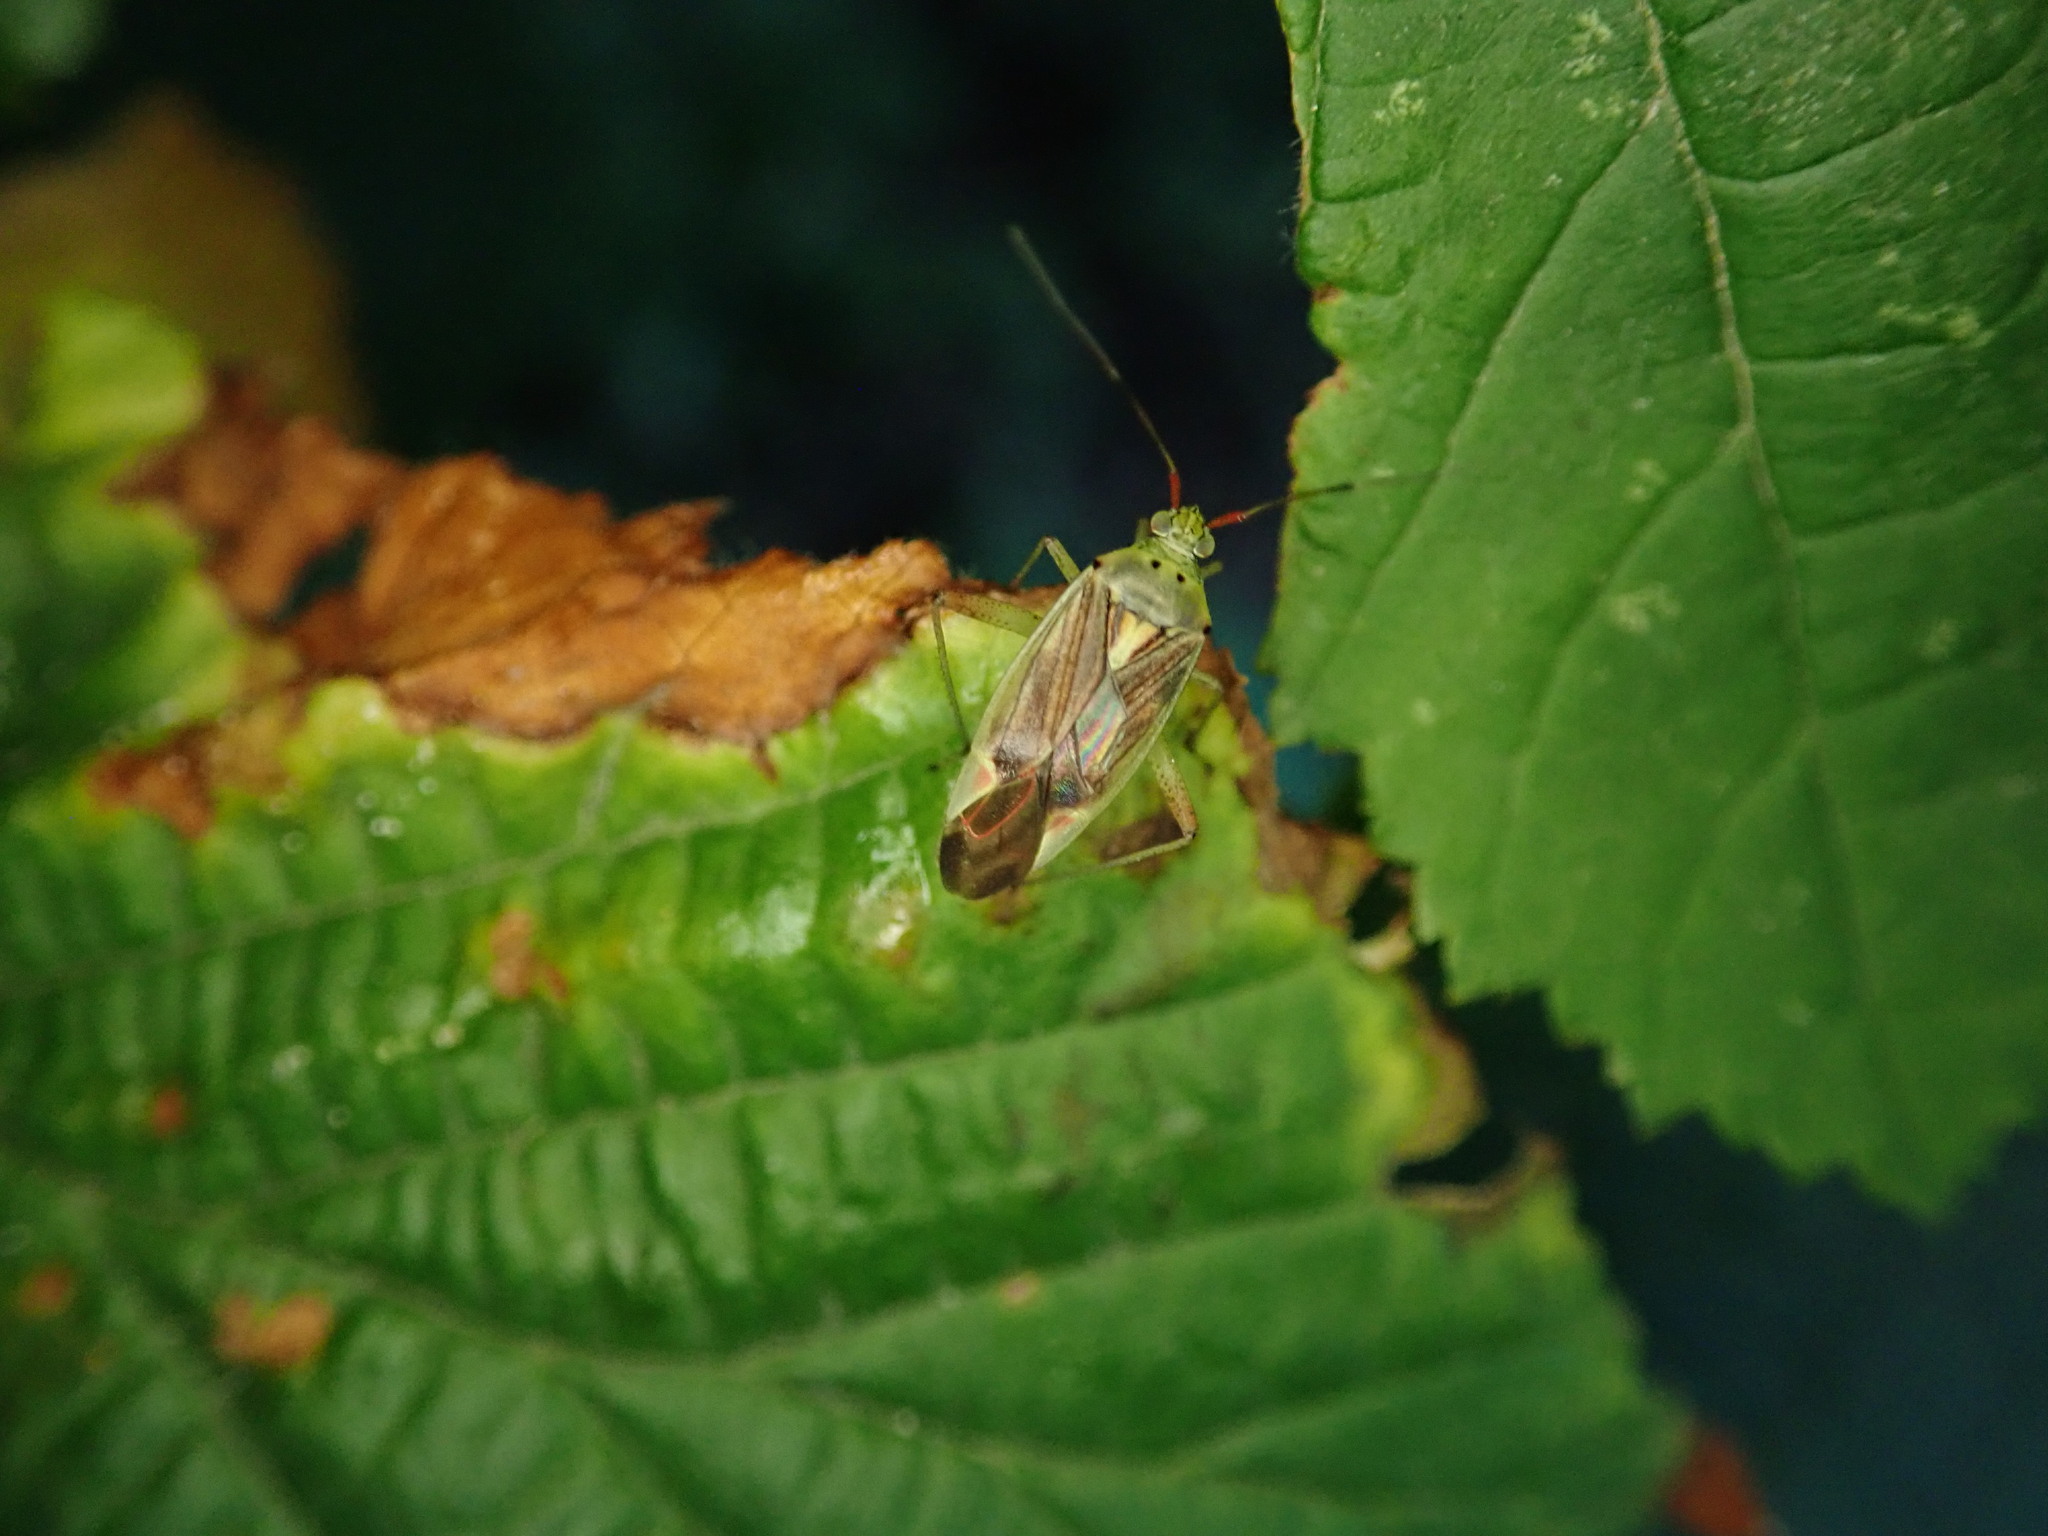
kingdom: Animalia
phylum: Arthropoda
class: Insecta
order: Hemiptera
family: Miridae
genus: Closterotomus
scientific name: Closterotomus trivialis
